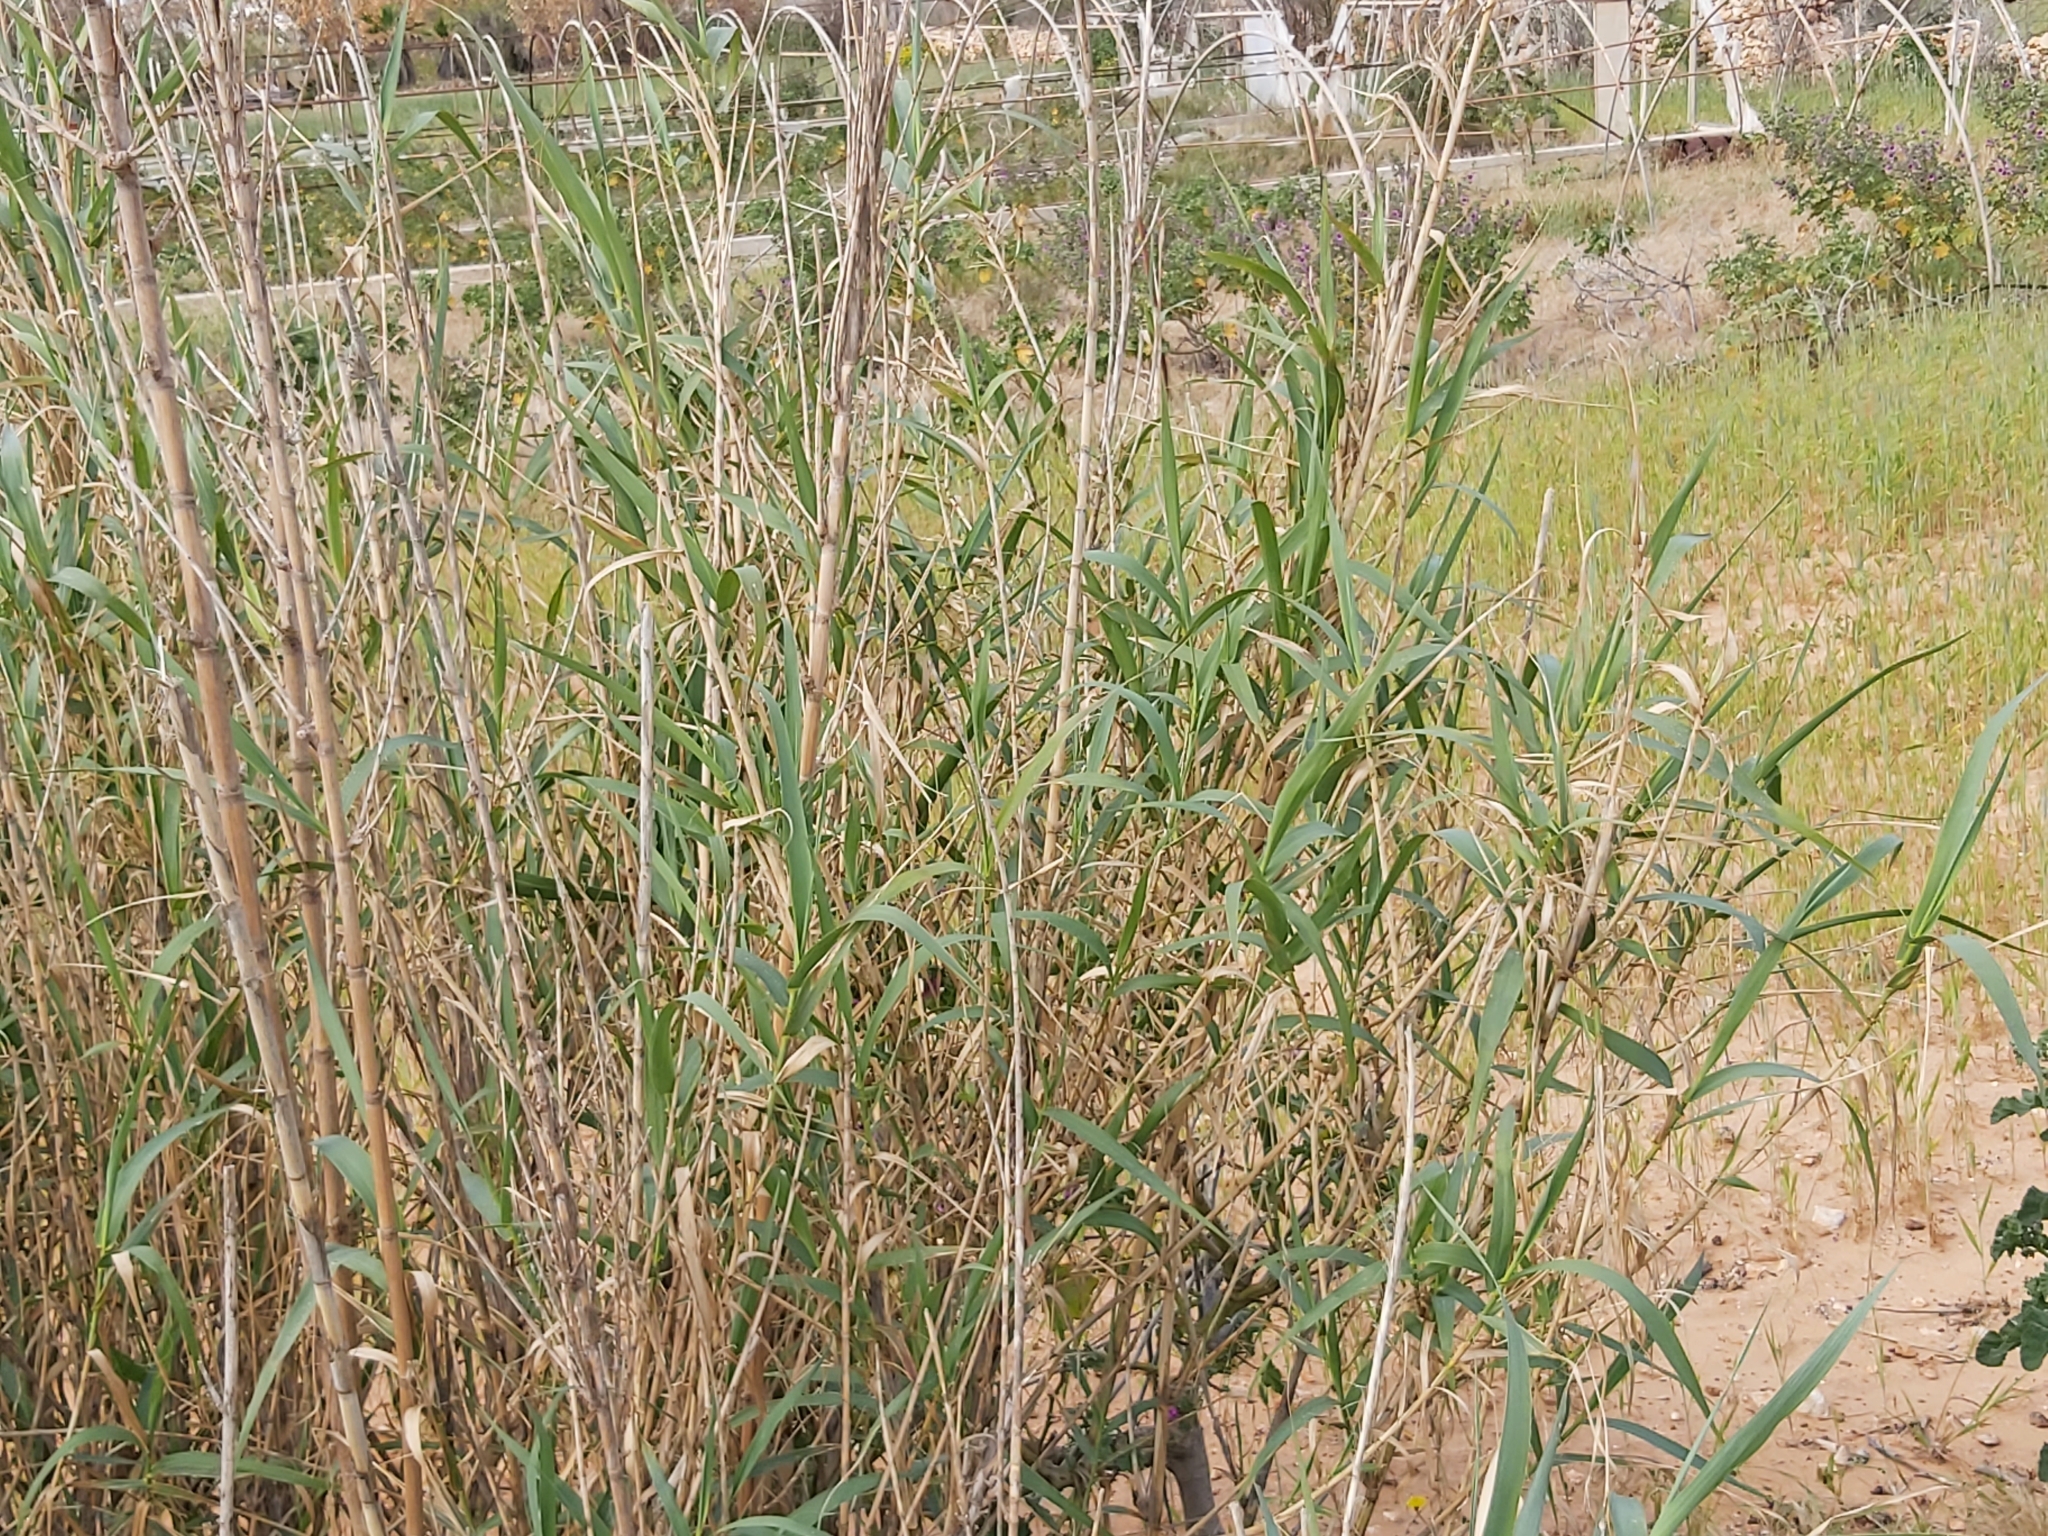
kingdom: Plantae
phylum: Tracheophyta
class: Liliopsida
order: Poales
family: Poaceae
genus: Arundo
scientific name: Arundo donax
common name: Giant reed
